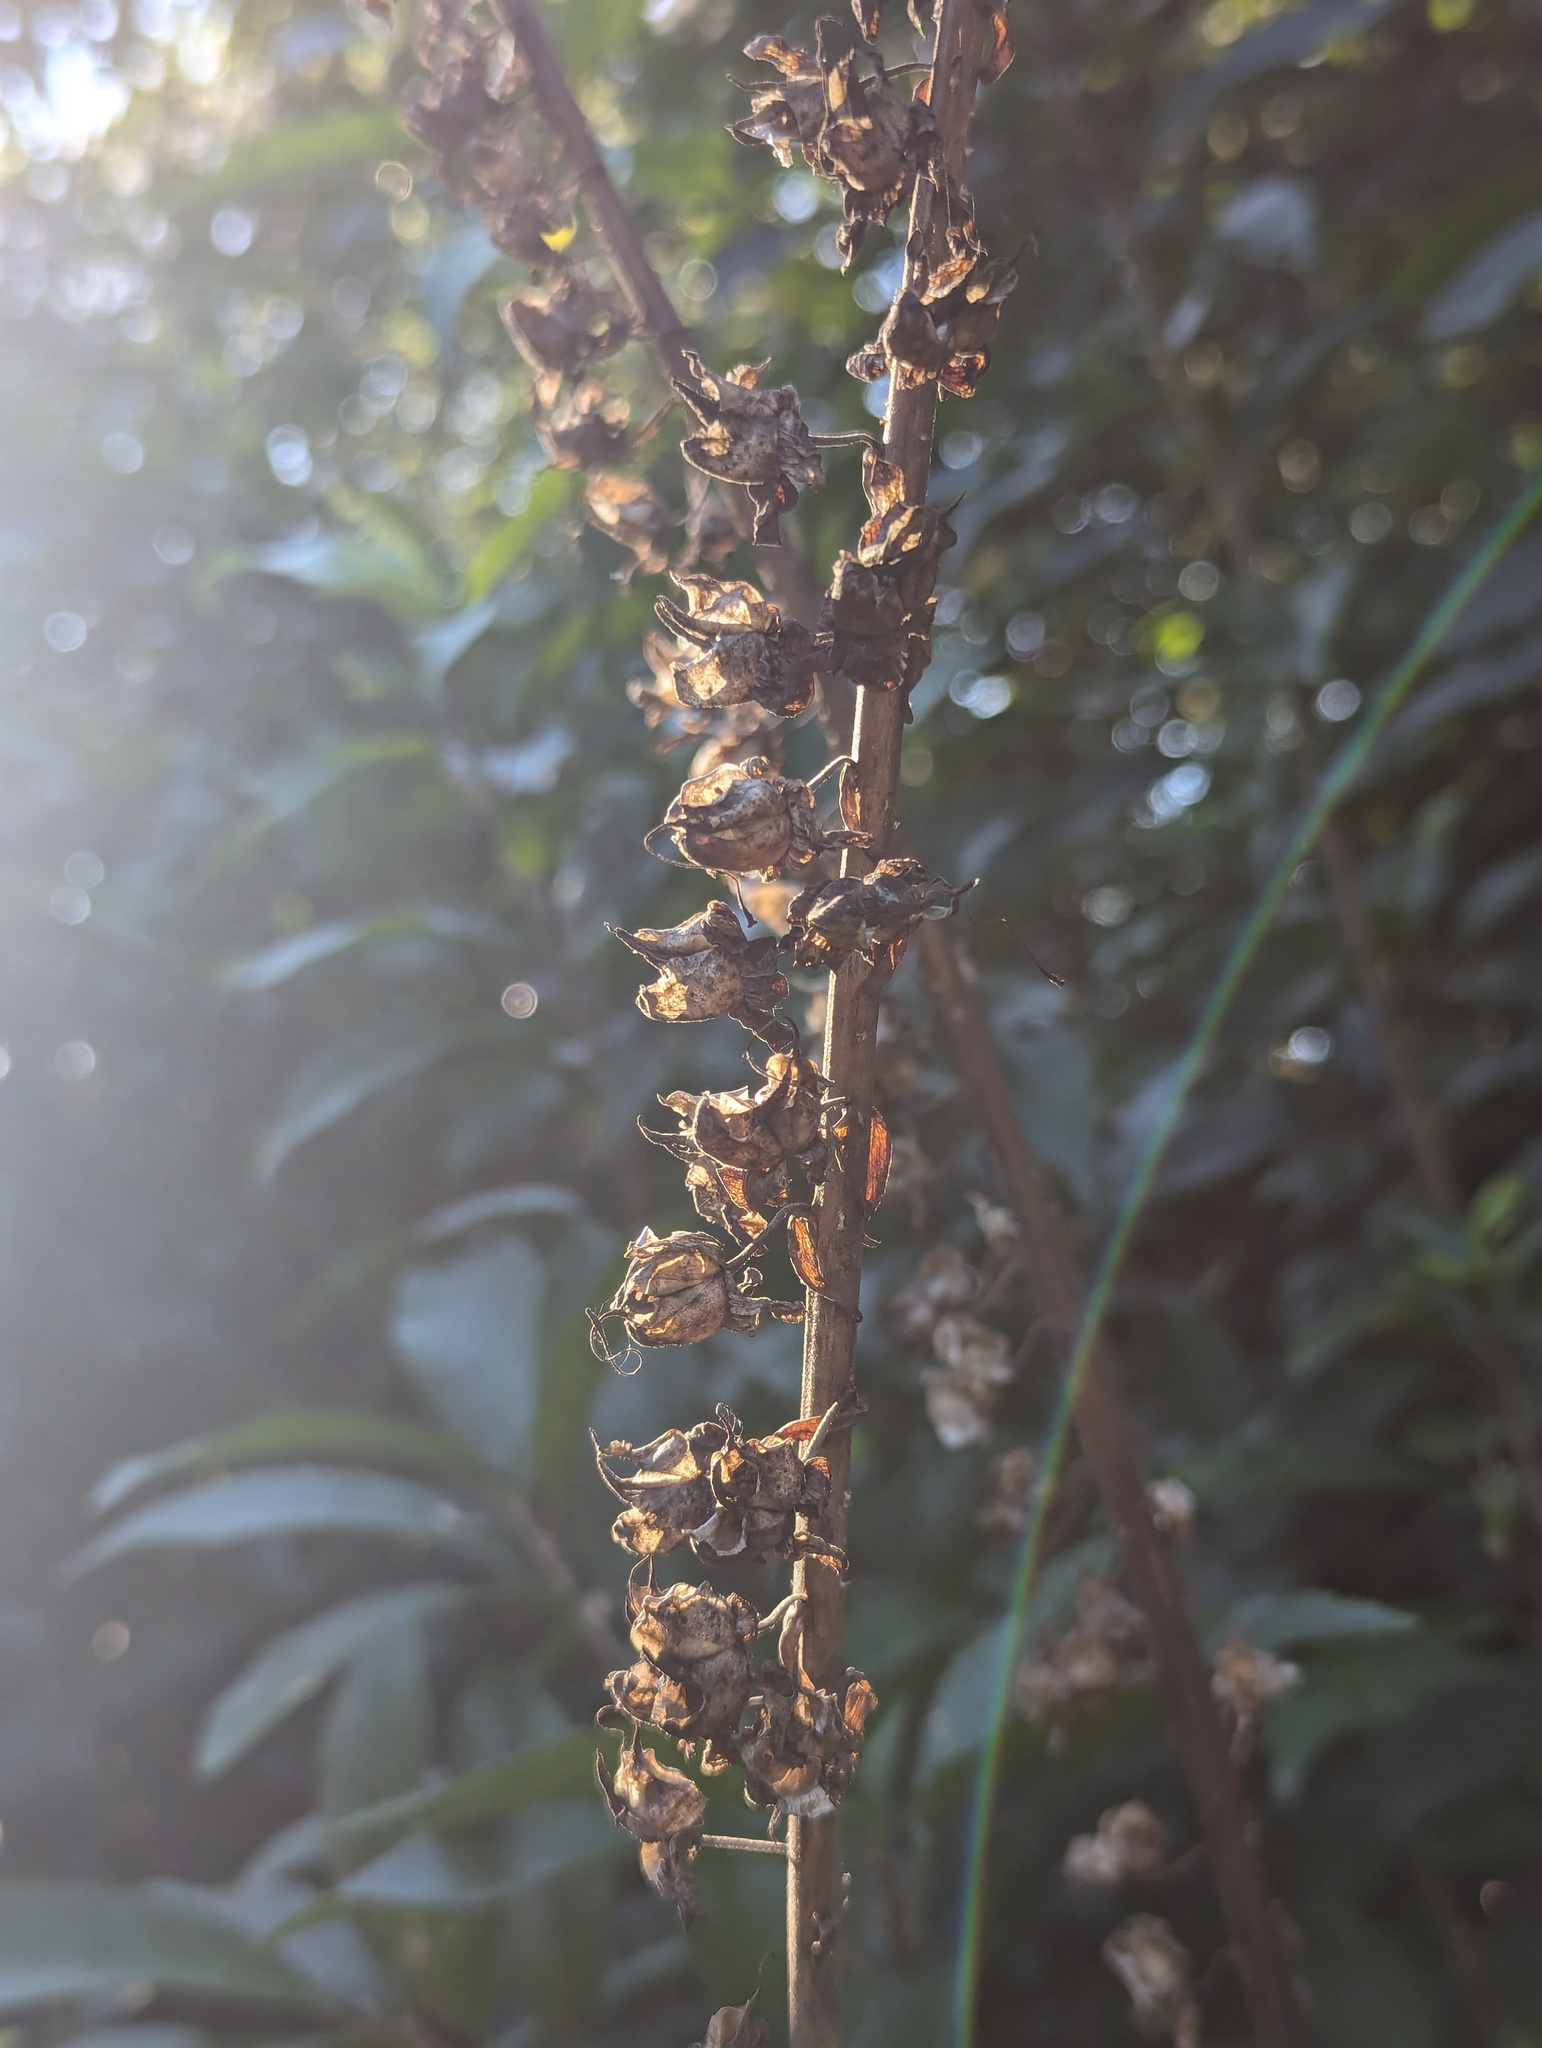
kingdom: Plantae
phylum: Tracheophyta
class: Magnoliopsida
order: Lamiales
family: Plantaginaceae
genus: Digitalis
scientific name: Digitalis purpurea
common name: Foxglove
